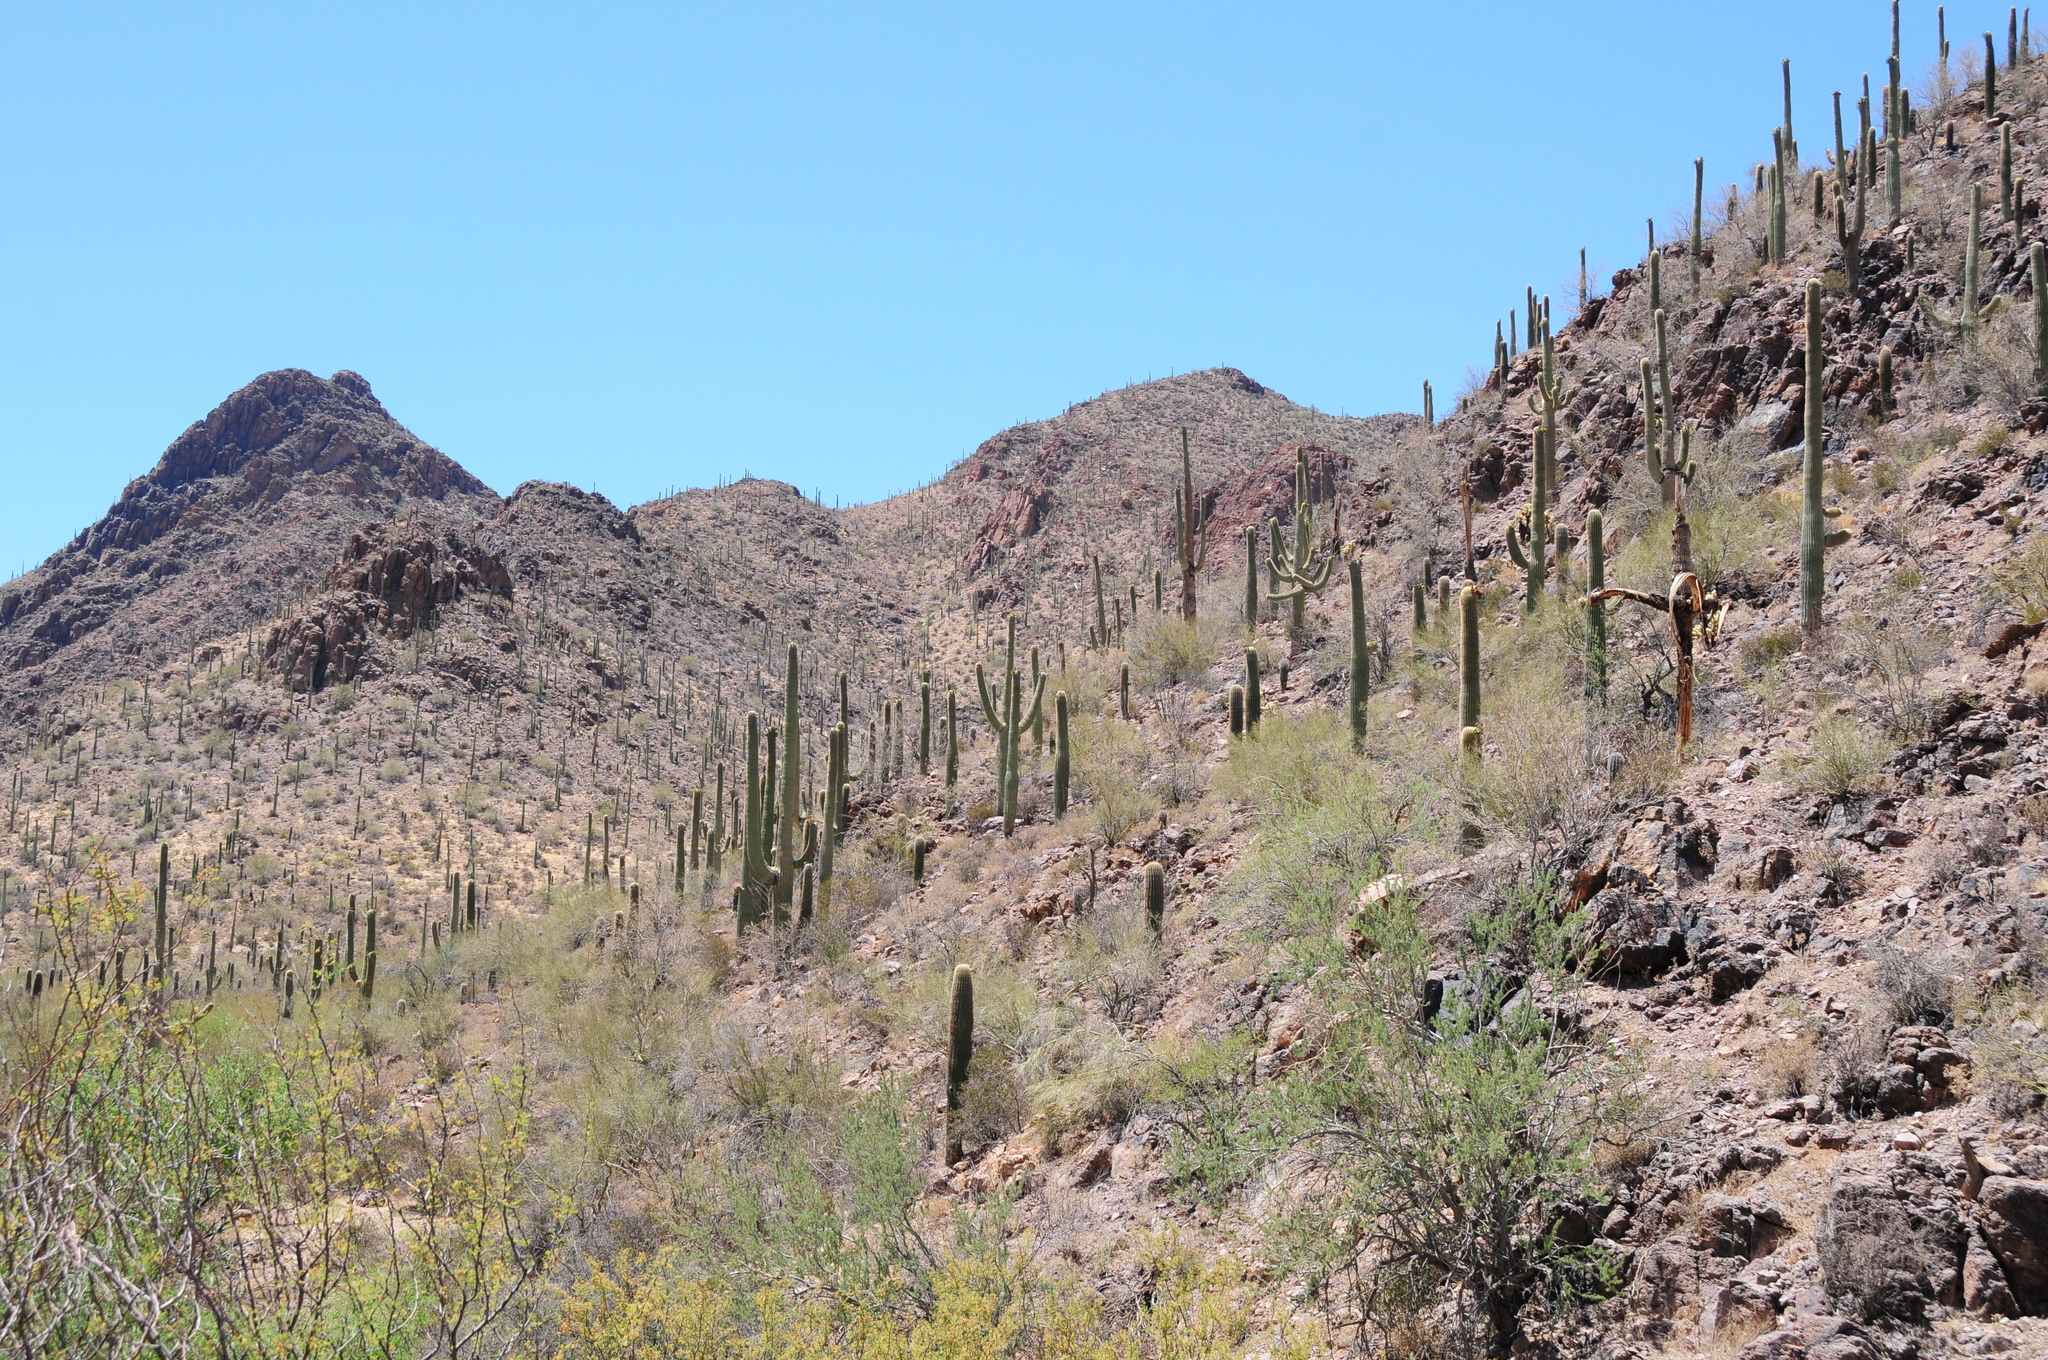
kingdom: Plantae
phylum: Tracheophyta
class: Magnoliopsida
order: Caryophyllales
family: Cactaceae
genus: Carnegiea
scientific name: Carnegiea gigantea
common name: Saguaro
